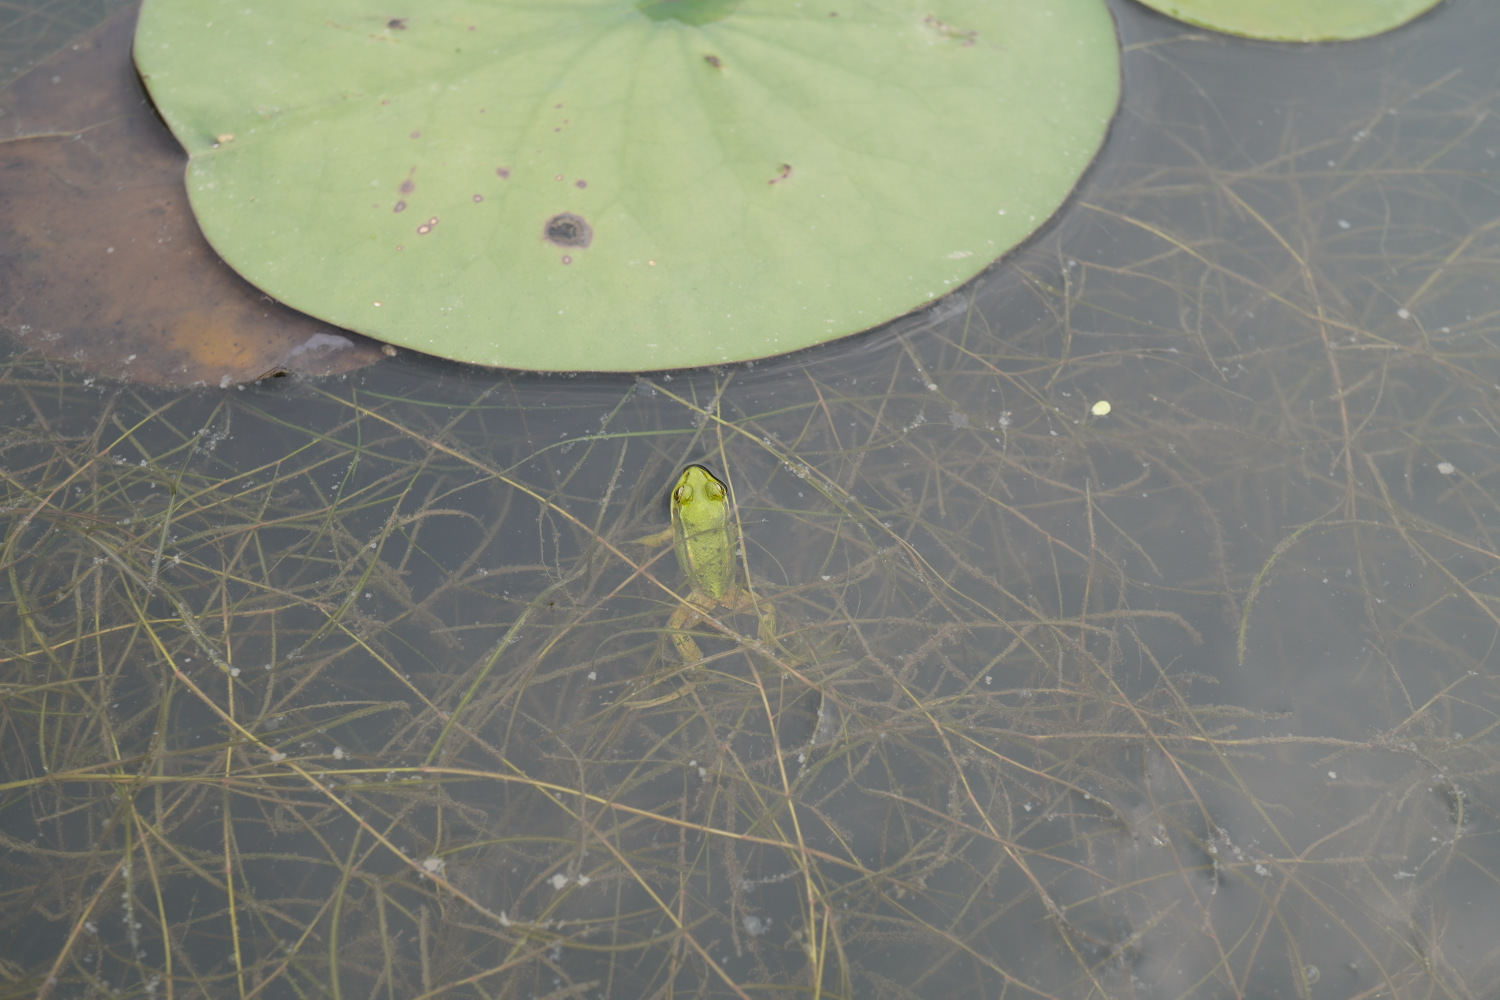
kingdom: Animalia
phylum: Chordata
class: Amphibia
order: Anura
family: Ranidae
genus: Pelophylax
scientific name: Pelophylax chosenicus
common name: Gold-spotted pond frog
